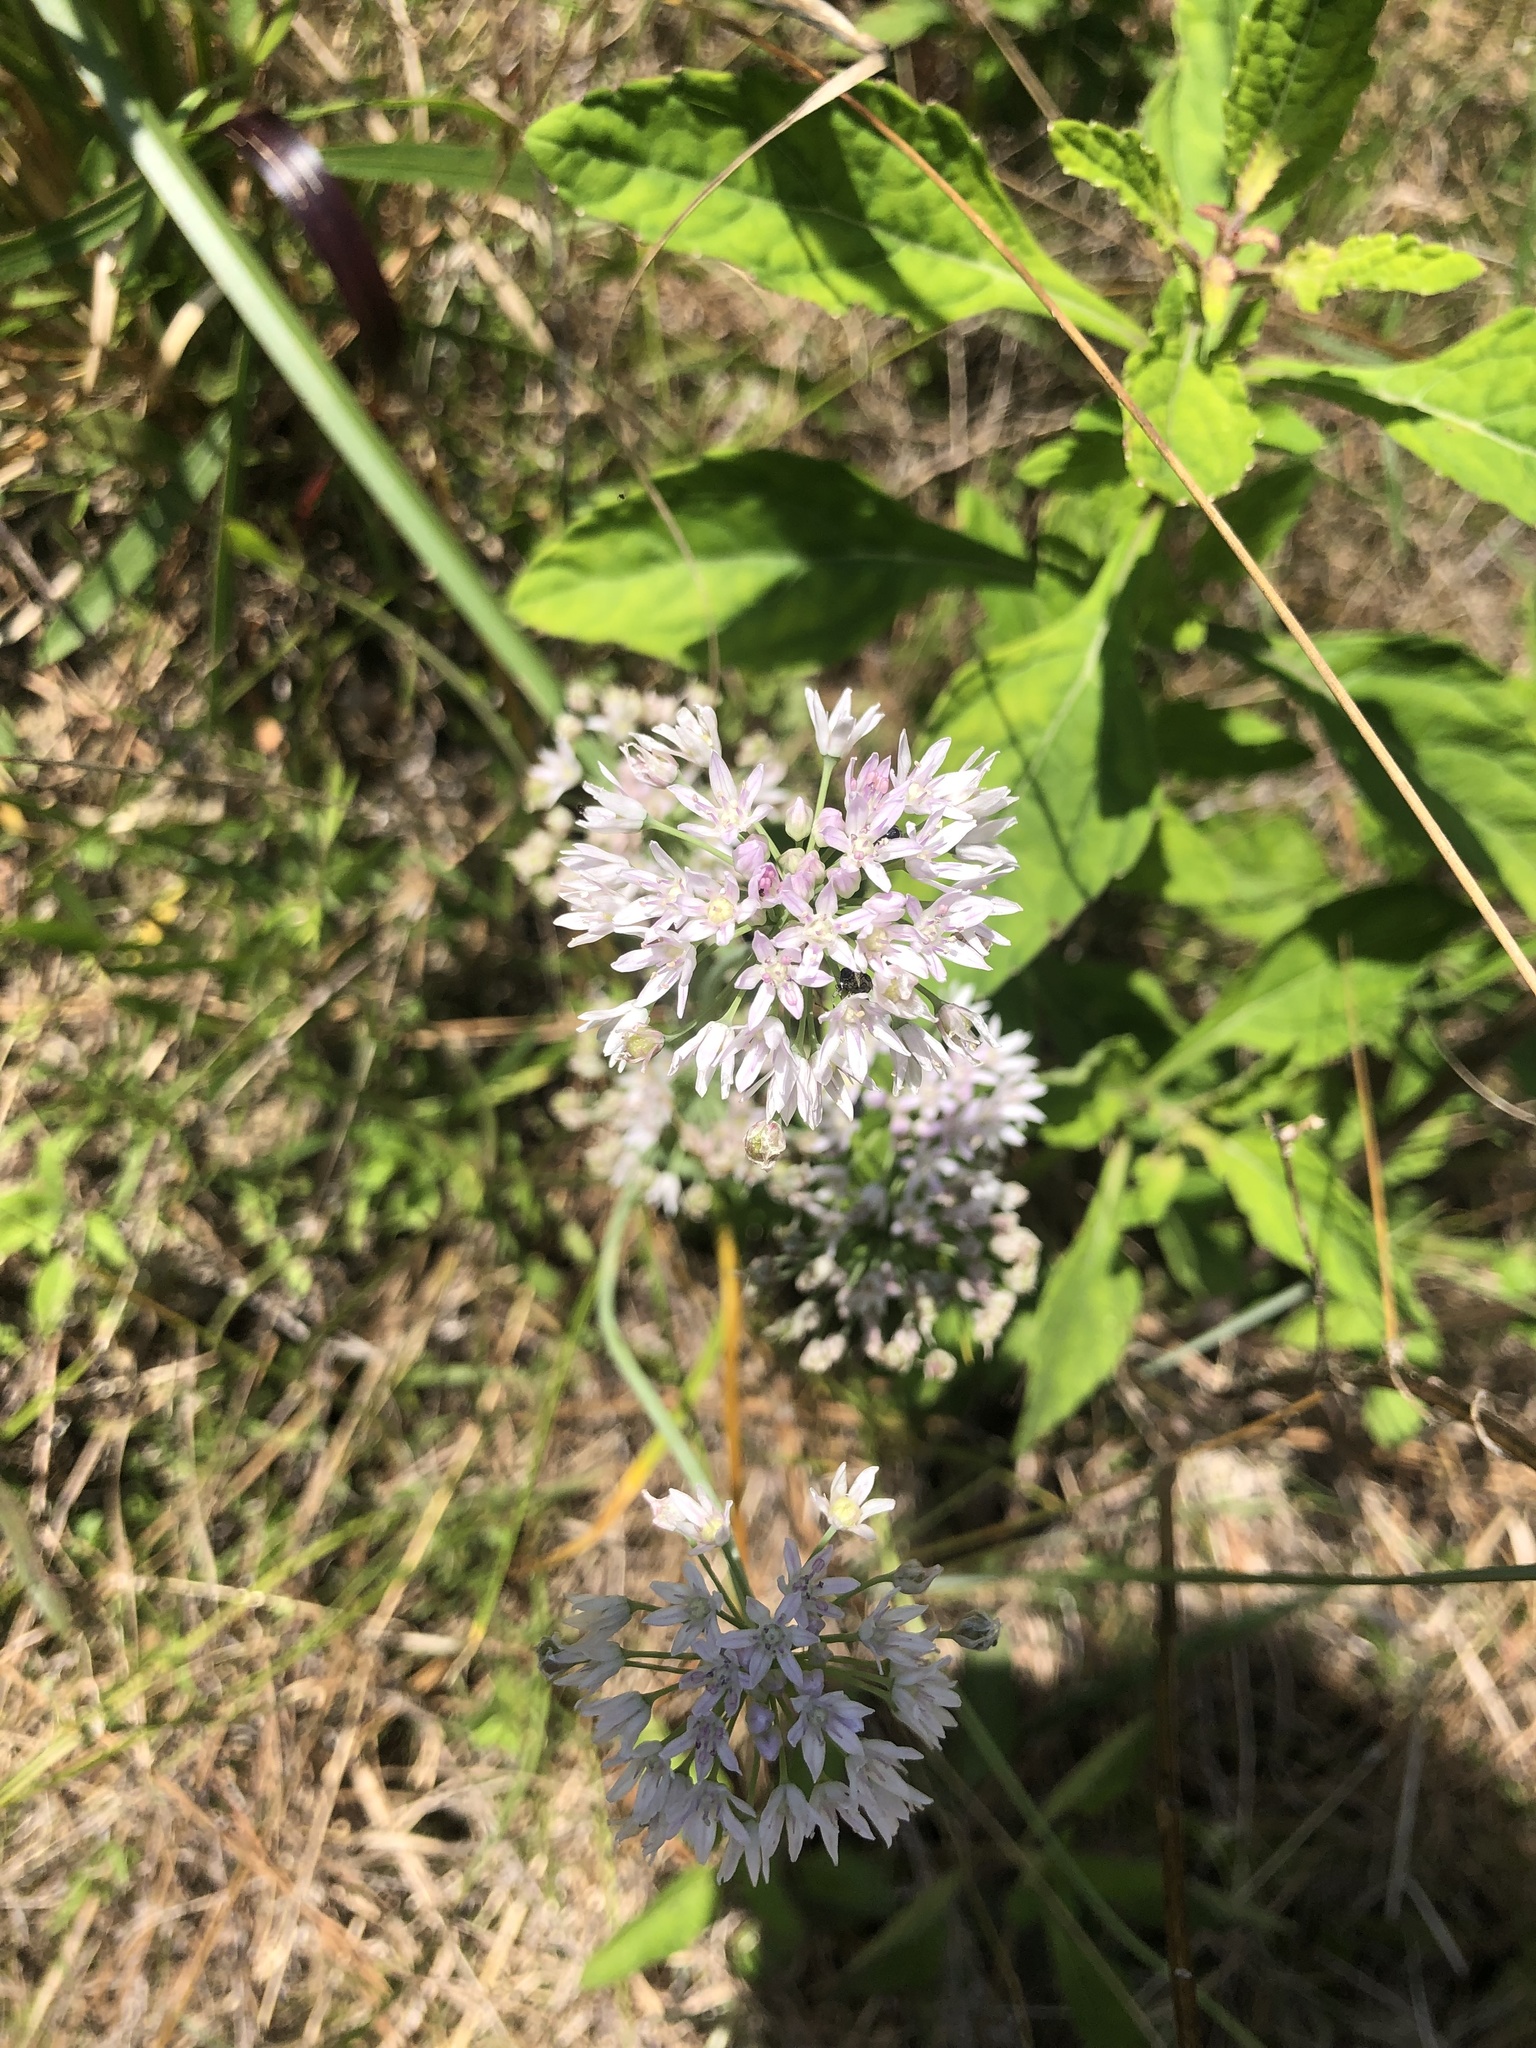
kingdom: Plantae
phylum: Tracheophyta
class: Liliopsida
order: Asparagales
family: Amaryllidaceae
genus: Allium
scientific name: Allium canadense
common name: Meadow garlic
